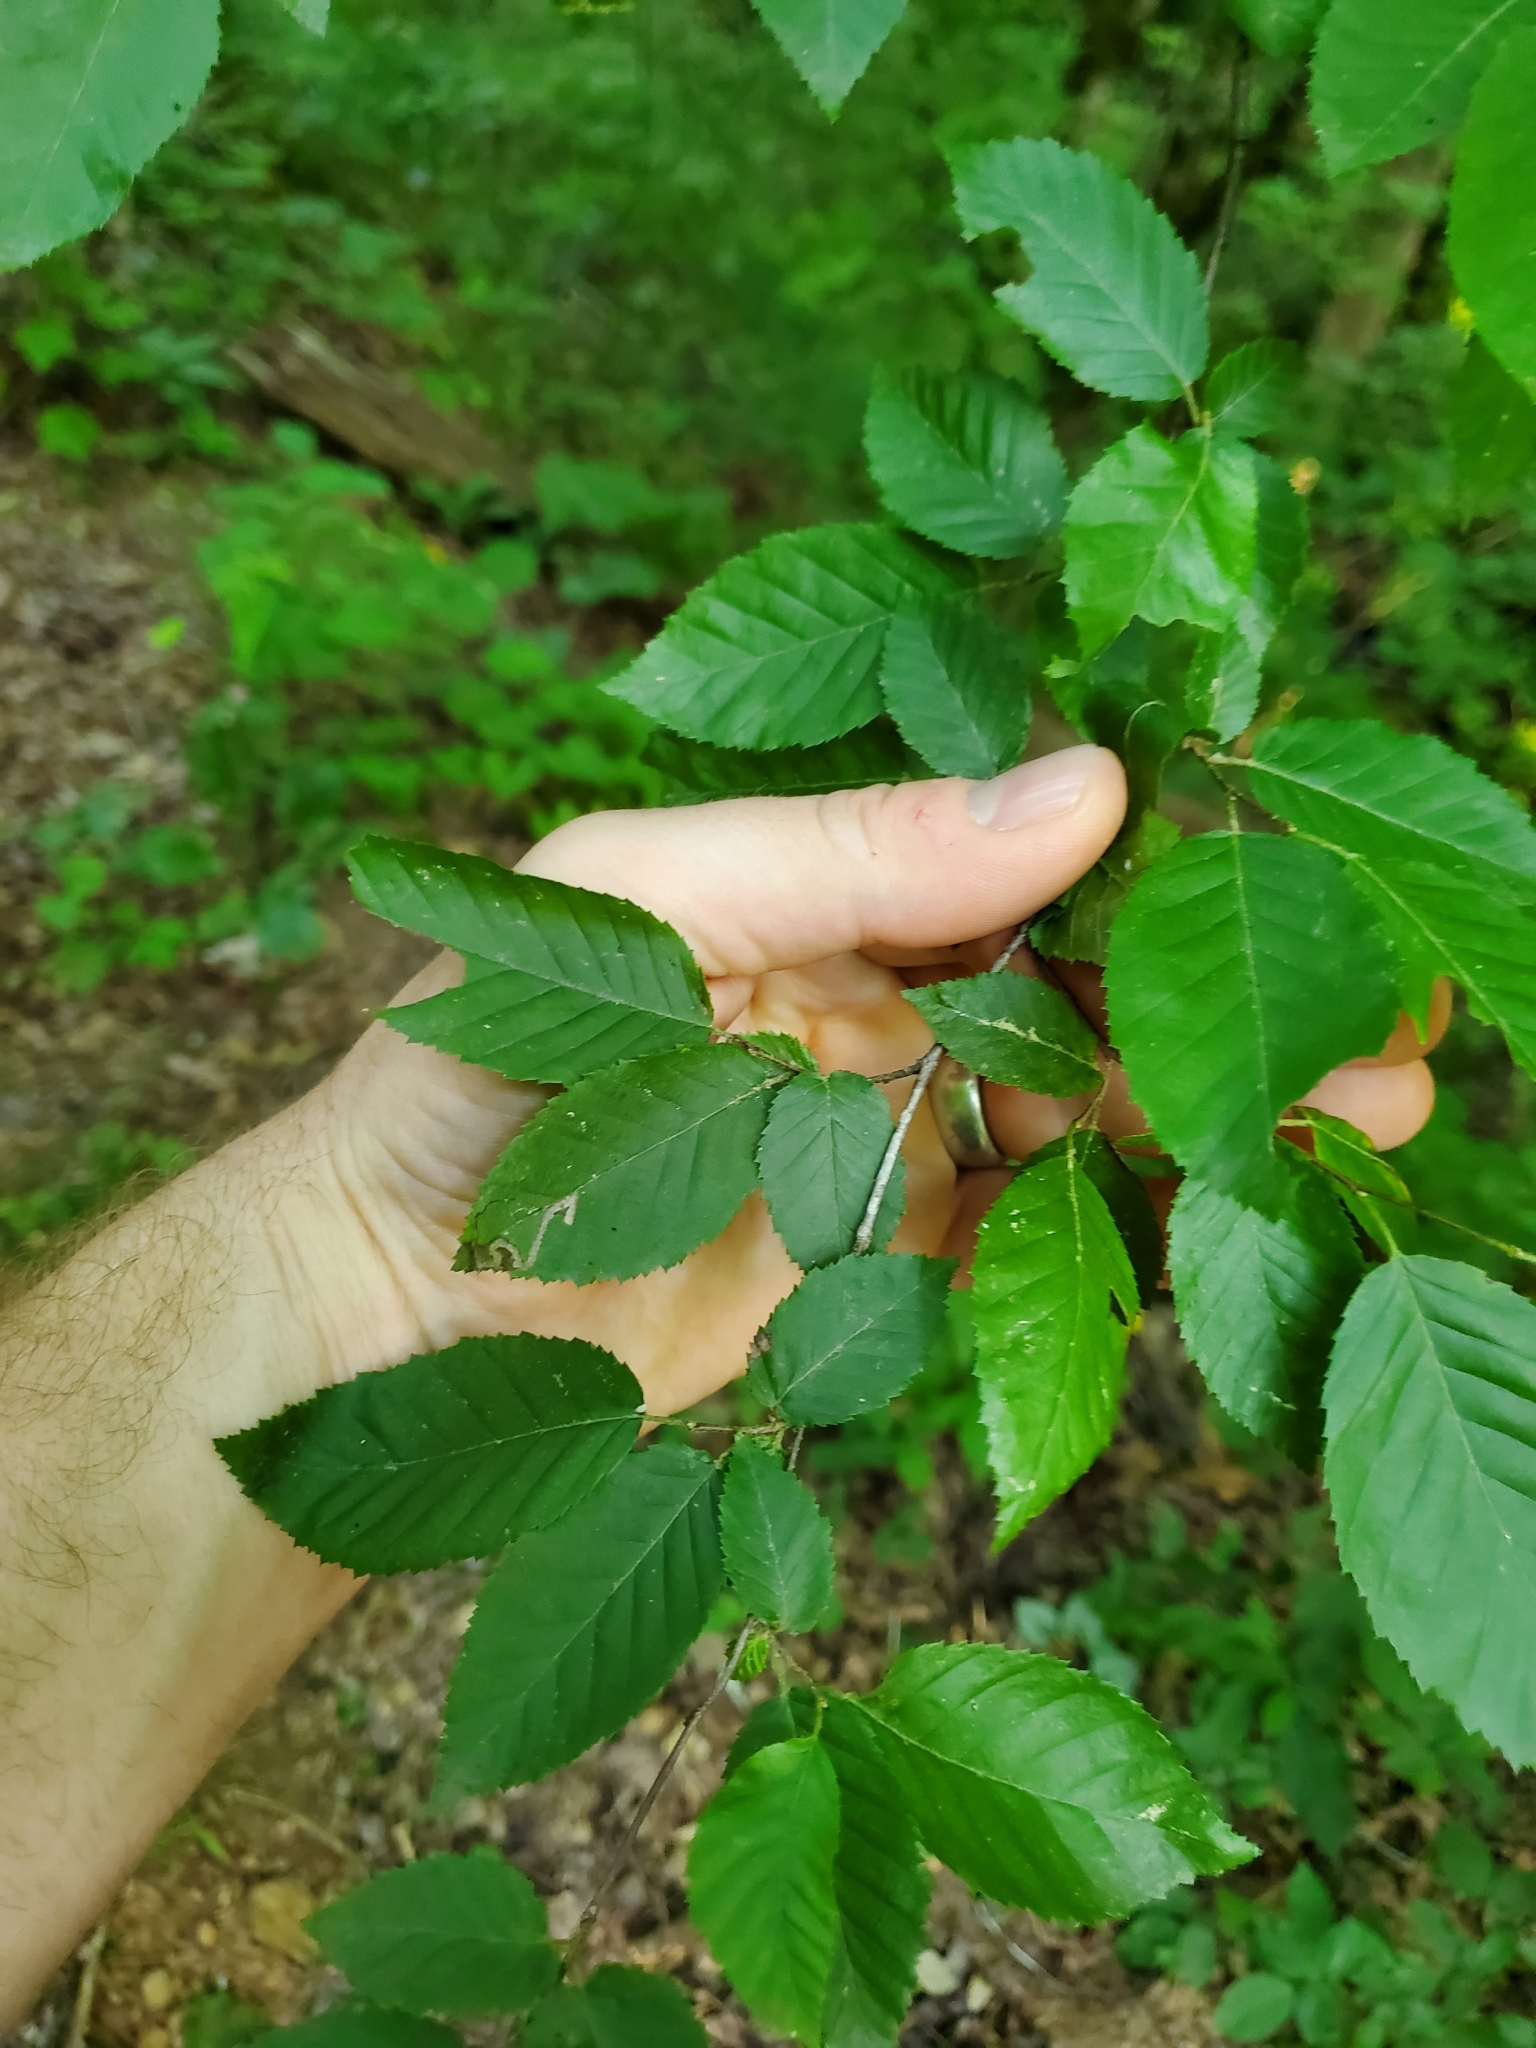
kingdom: Plantae
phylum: Tracheophyta
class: Magnoliopsida
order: Fagales
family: Betulaceae
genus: Carpinus
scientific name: Carpinus caroliniana
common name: American hornbeam
